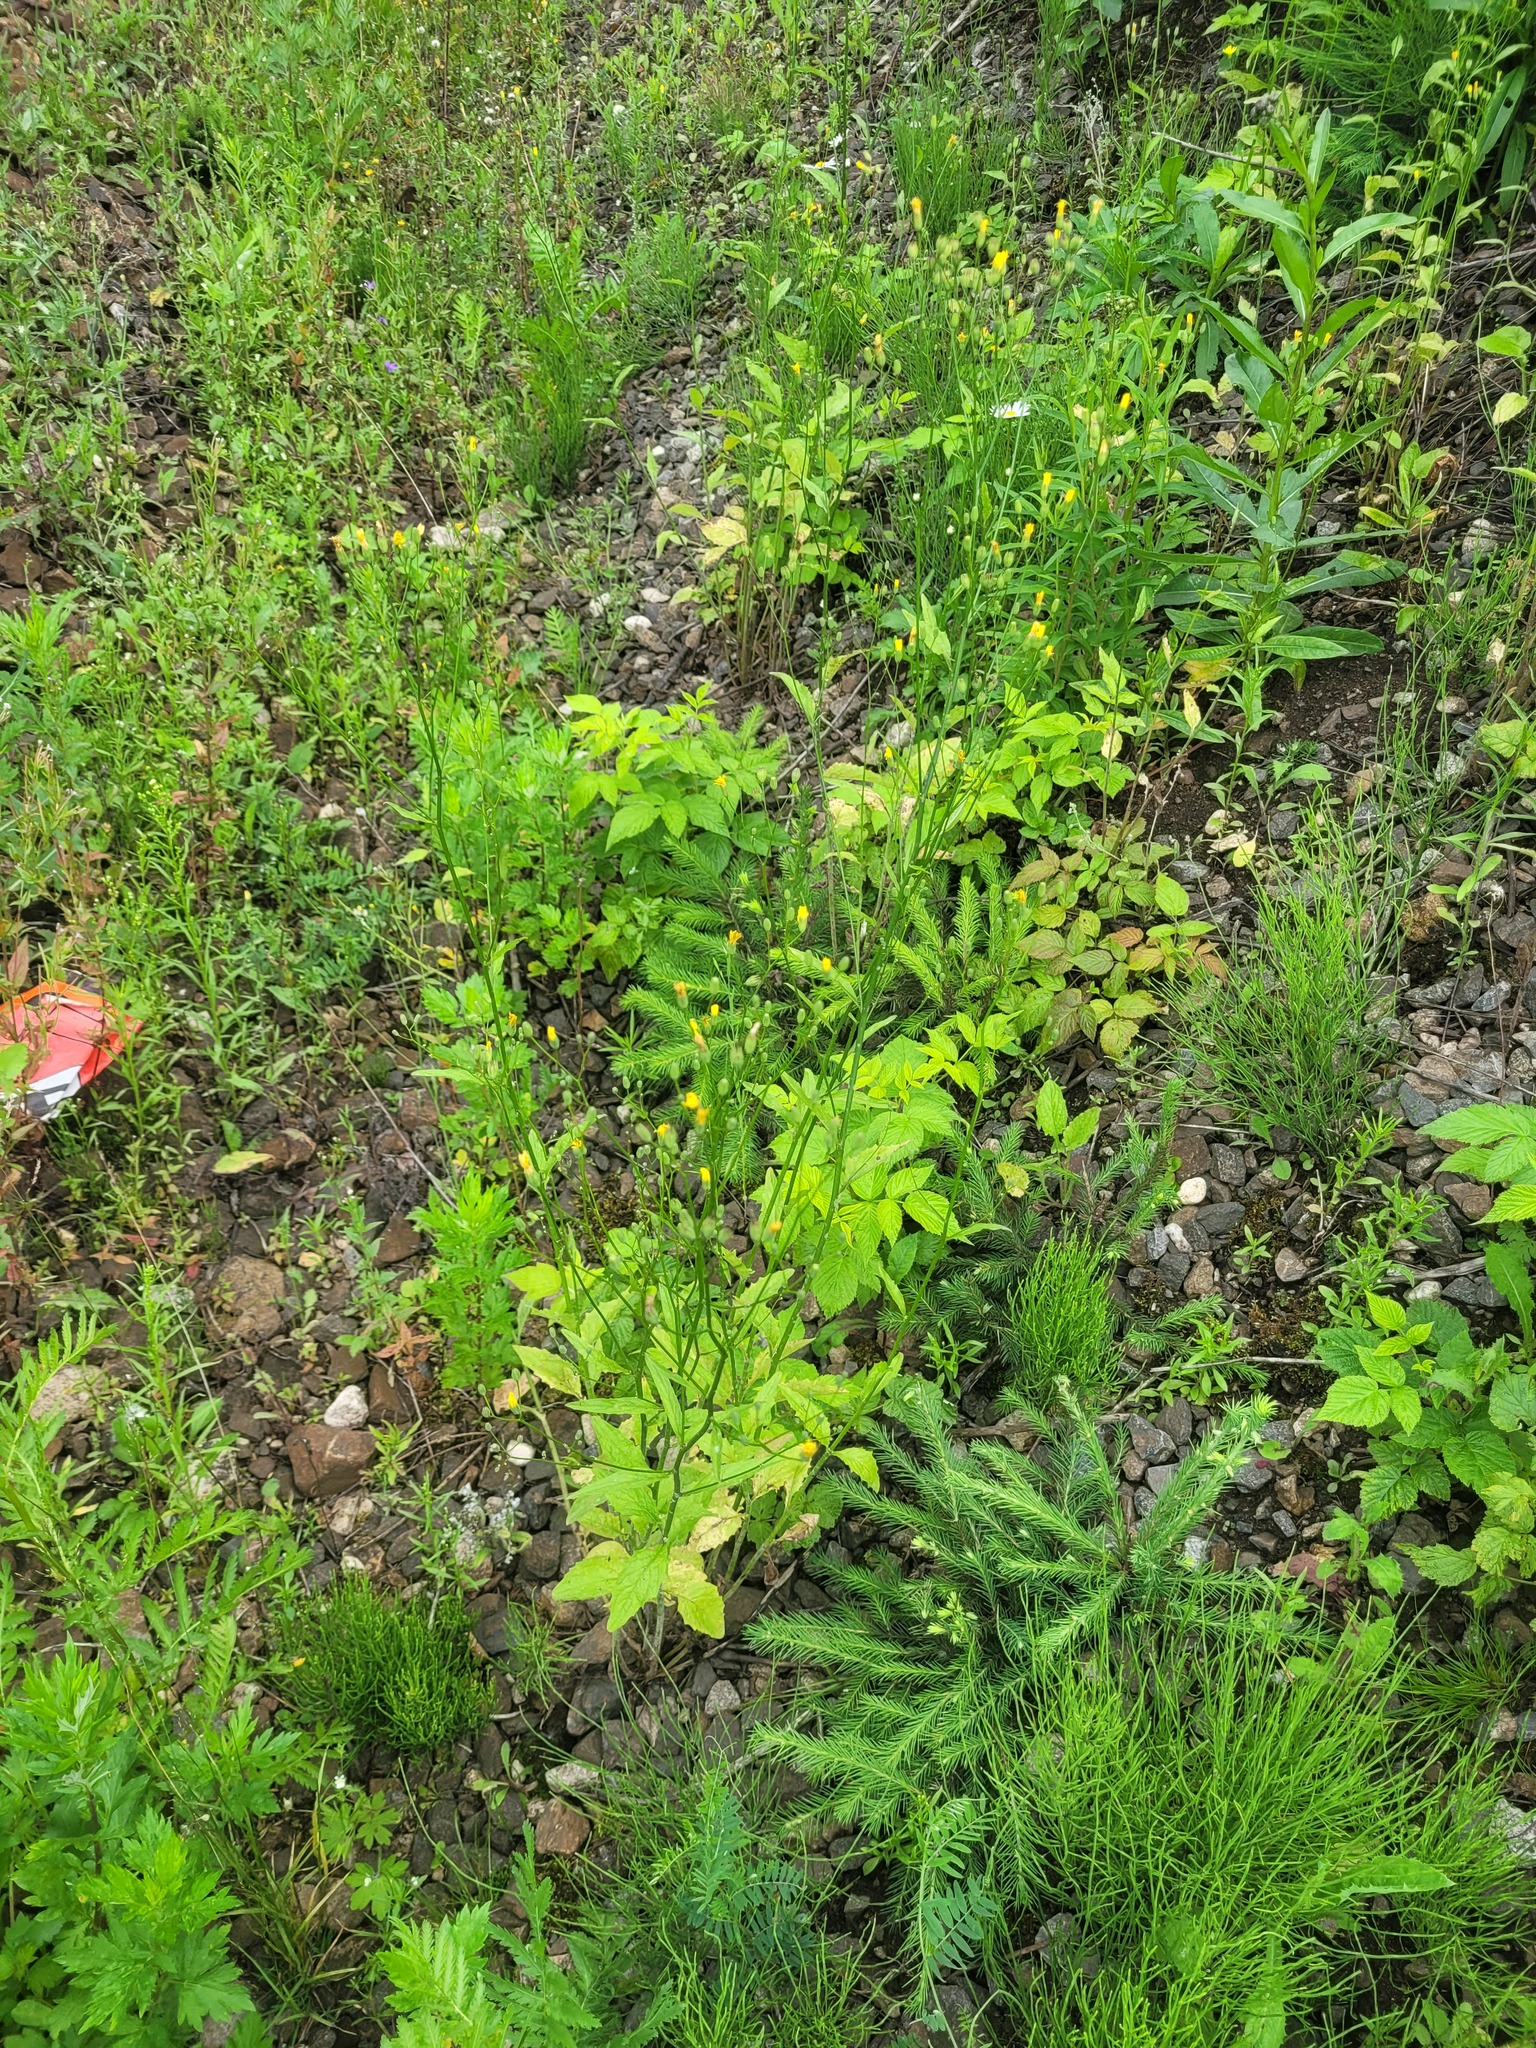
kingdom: Plantae
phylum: Tracheophyta
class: Magnoliopsida
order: Asterales
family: Asteraceae
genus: Lapsana
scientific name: Lapsana communis
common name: Nipplewort
